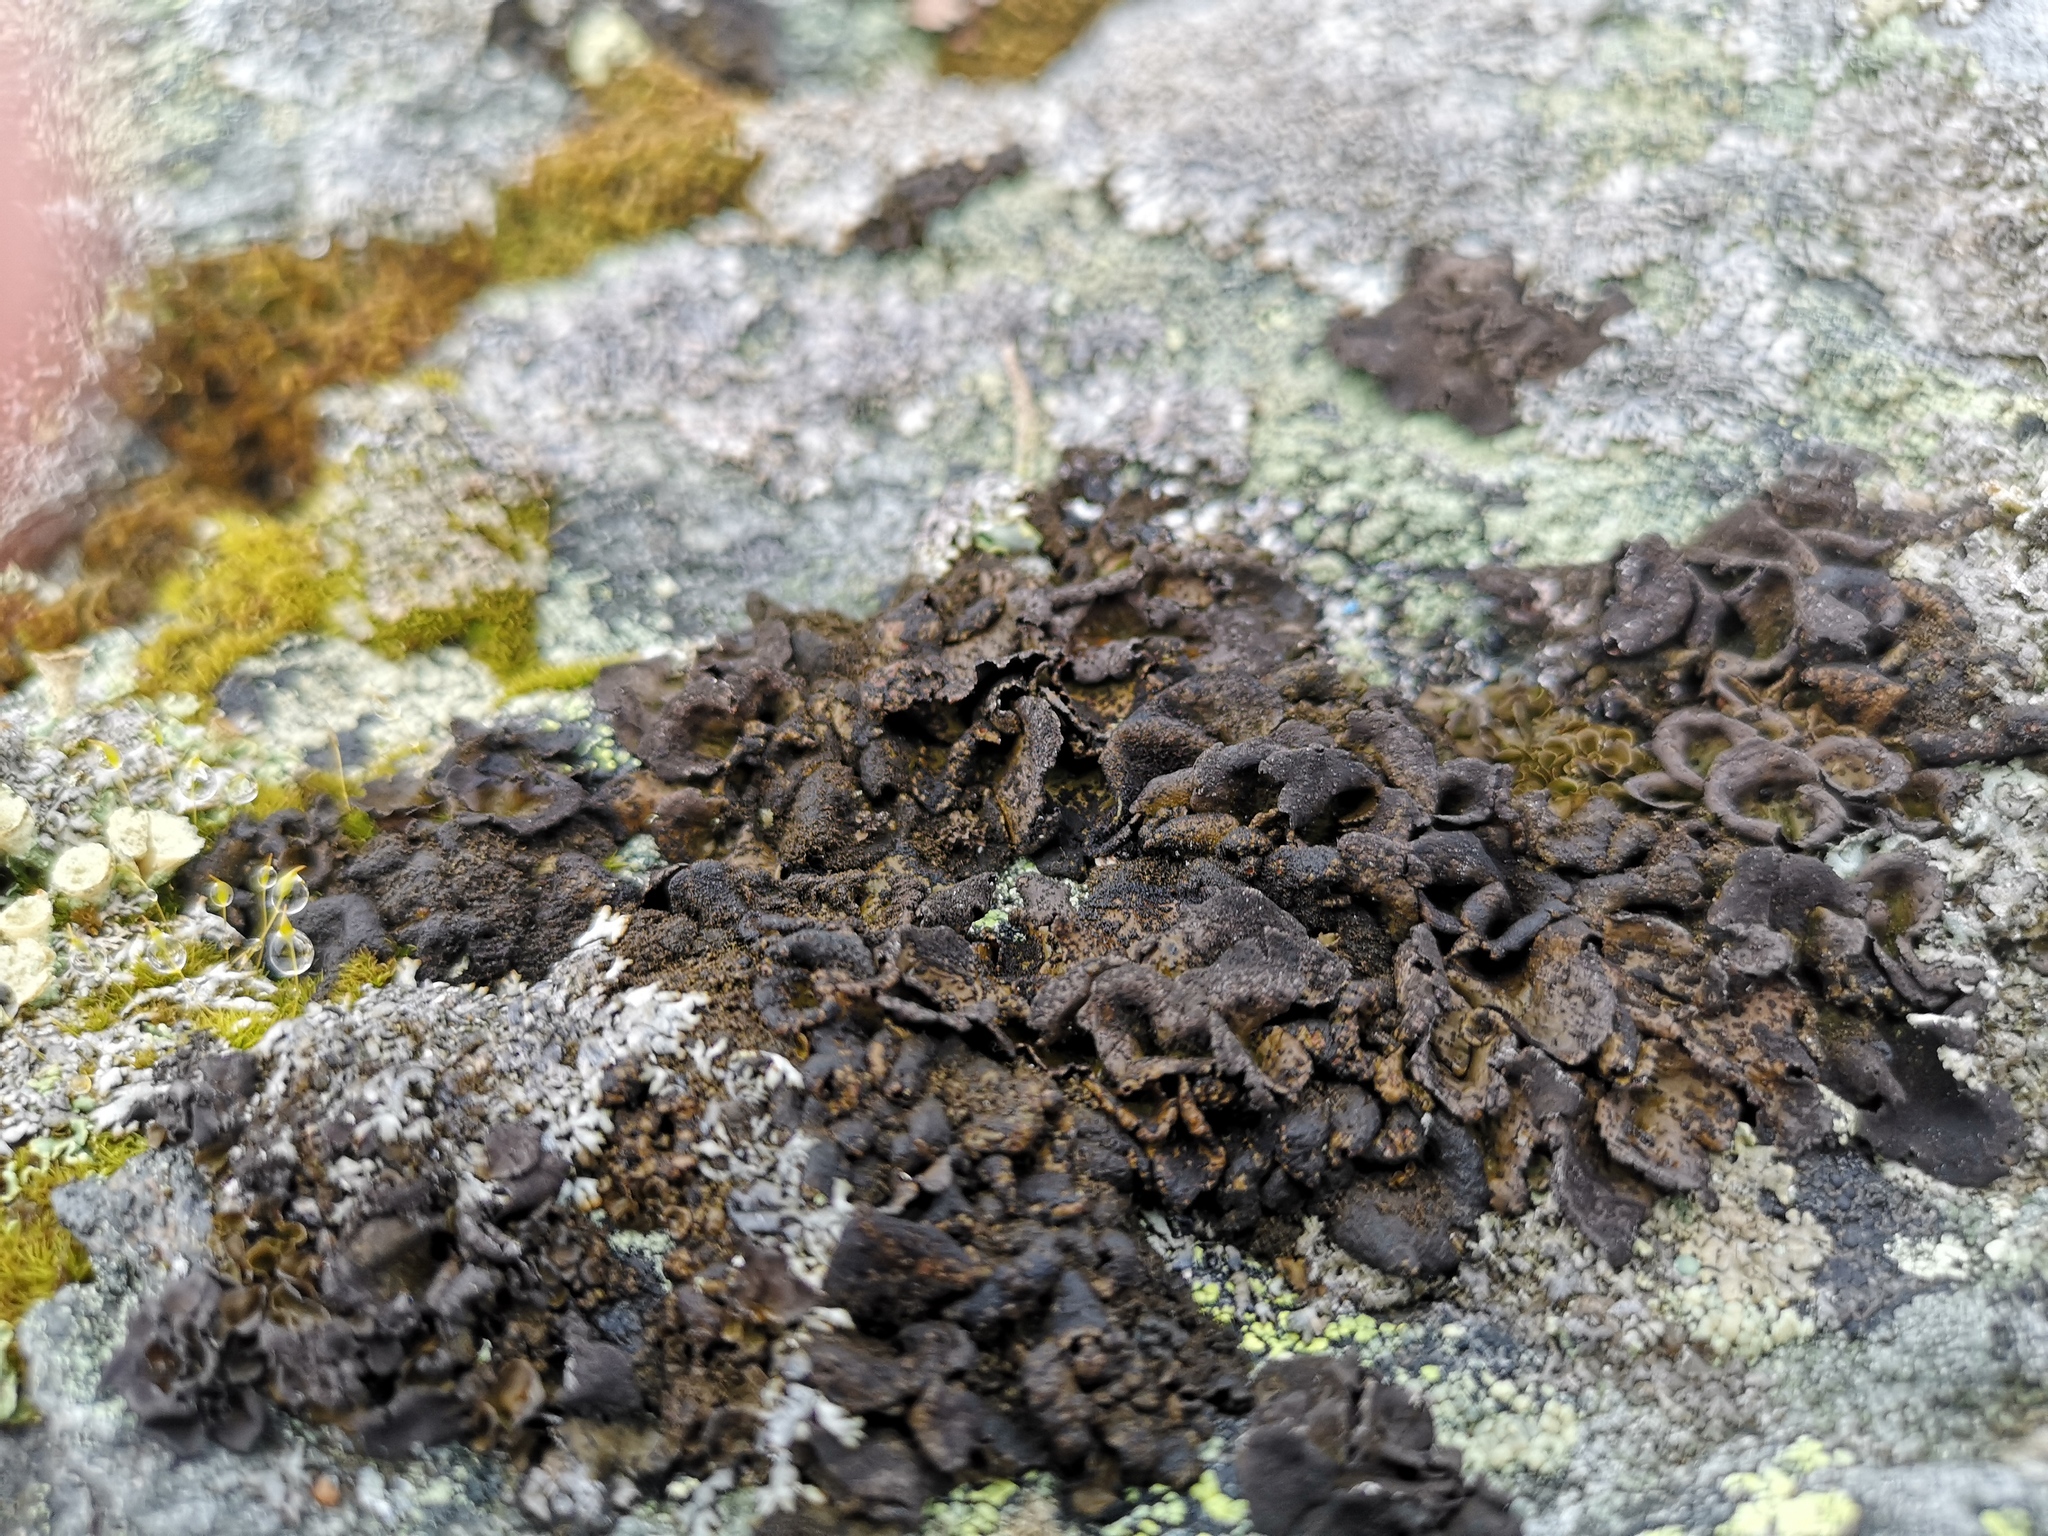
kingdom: Fungi
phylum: Ascomycota
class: Lecanoromycetes
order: Umbilicariales
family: Umbilicariaceae
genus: Umbilicaria
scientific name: Umbilicaria deusta
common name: Peppered rock tripe
